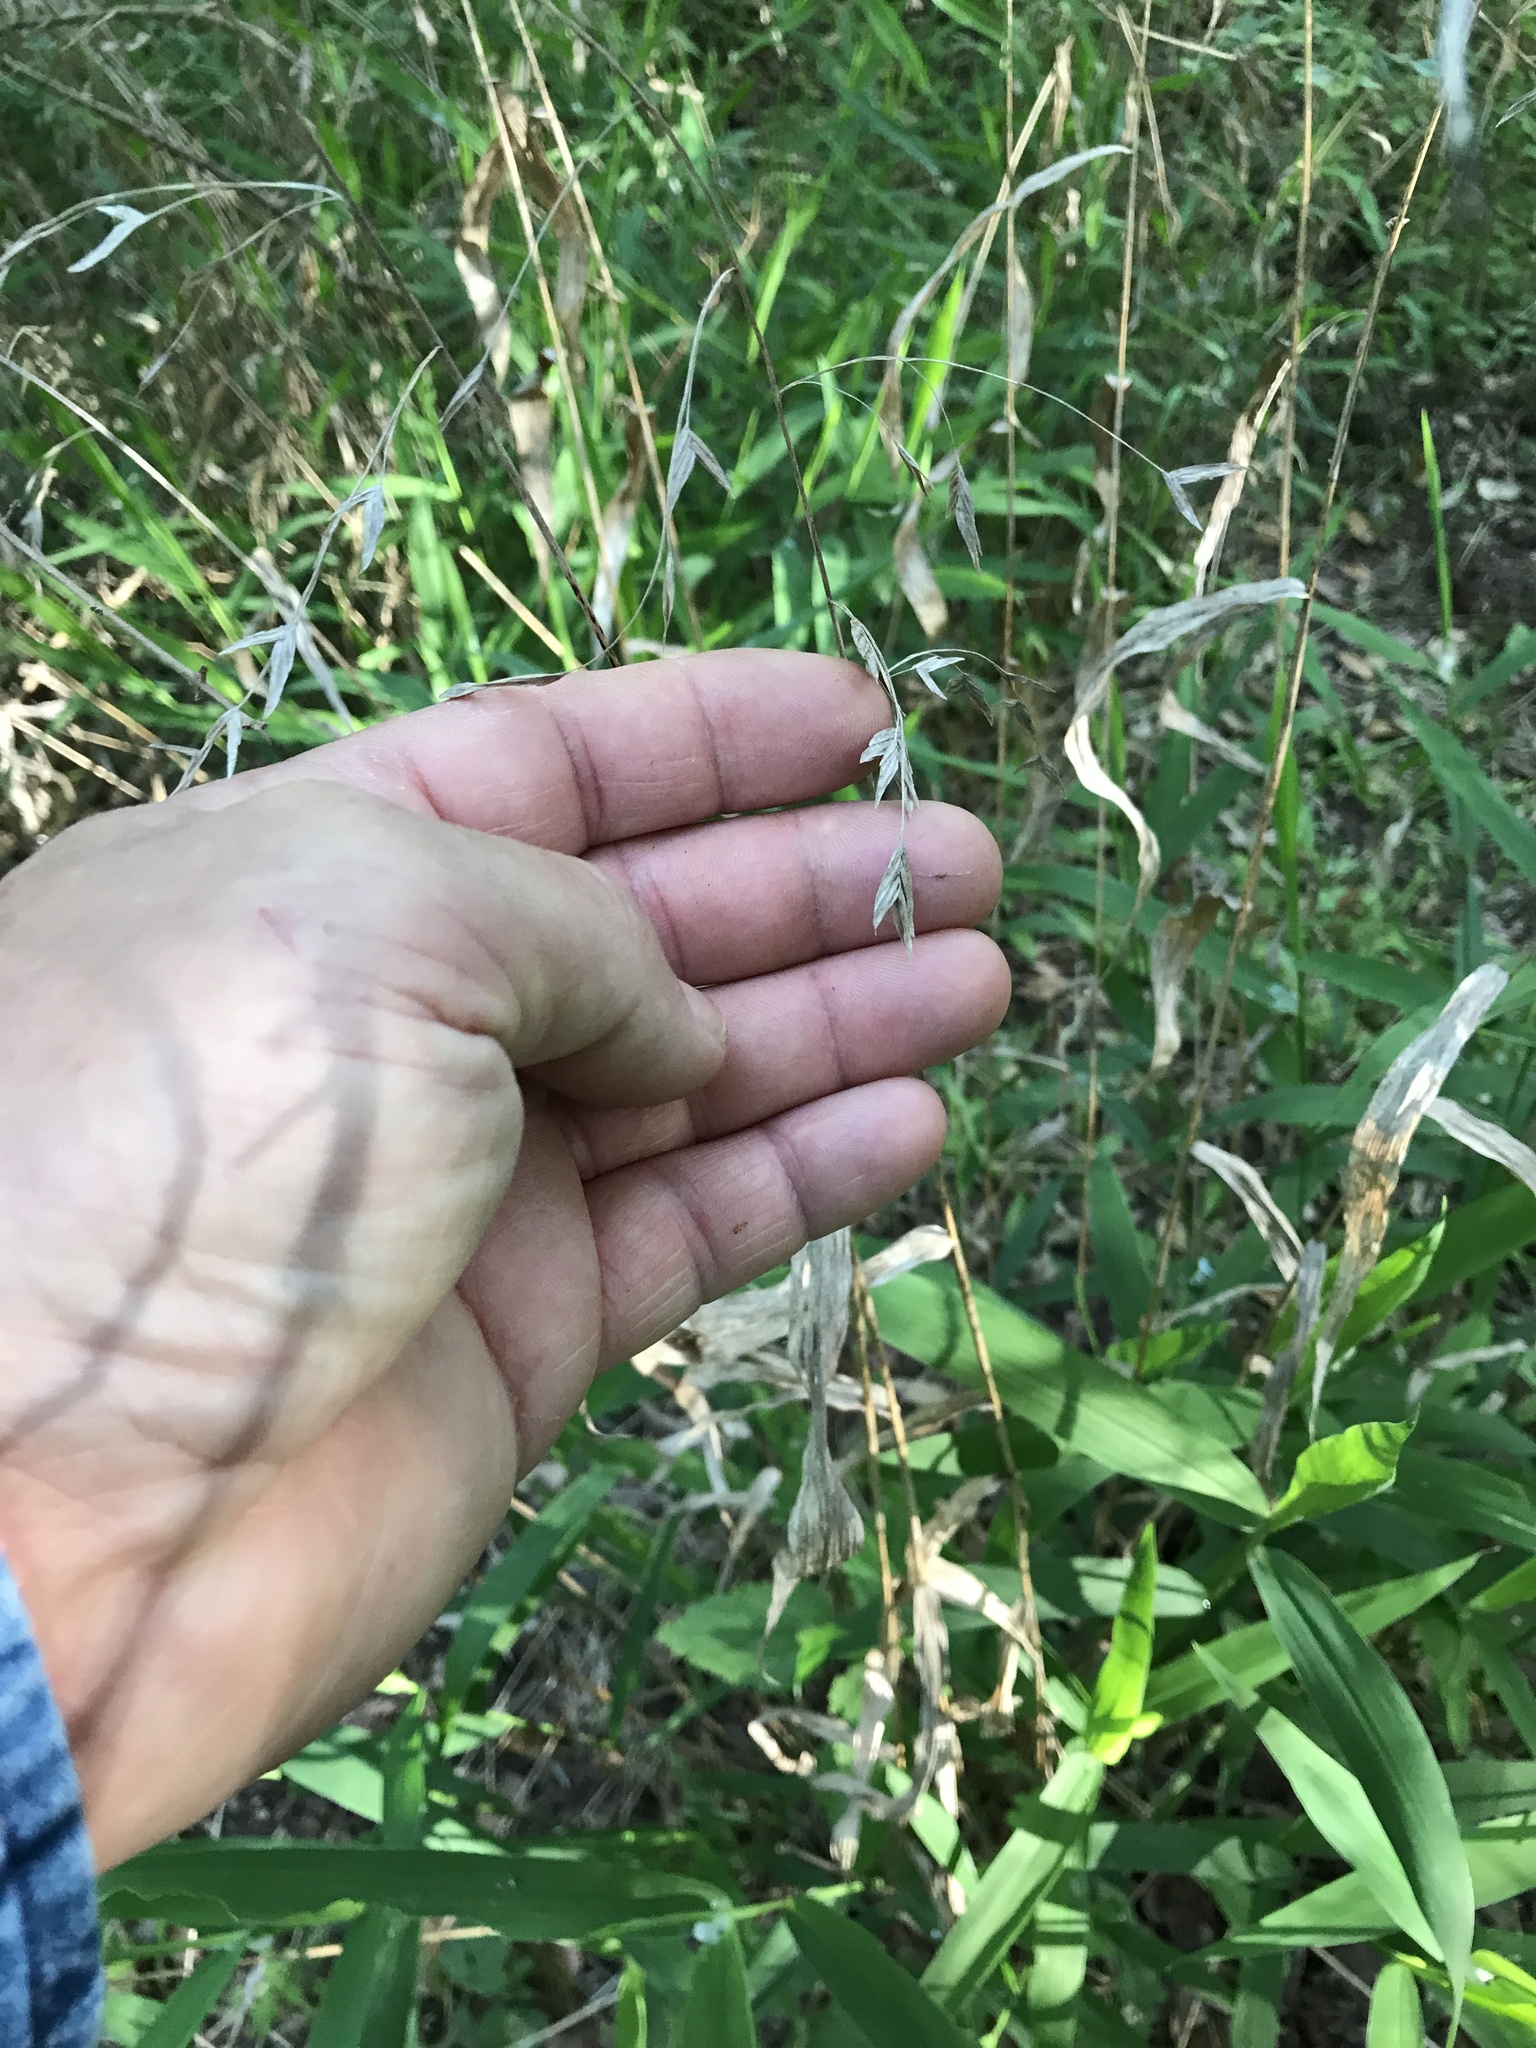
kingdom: Plantae
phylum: Tracheophyta
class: Liliopsida
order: Poales
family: Poaceae
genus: Chasmanthium
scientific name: Chasmanthium latifolium
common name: Broad-leaved chasmanthium
